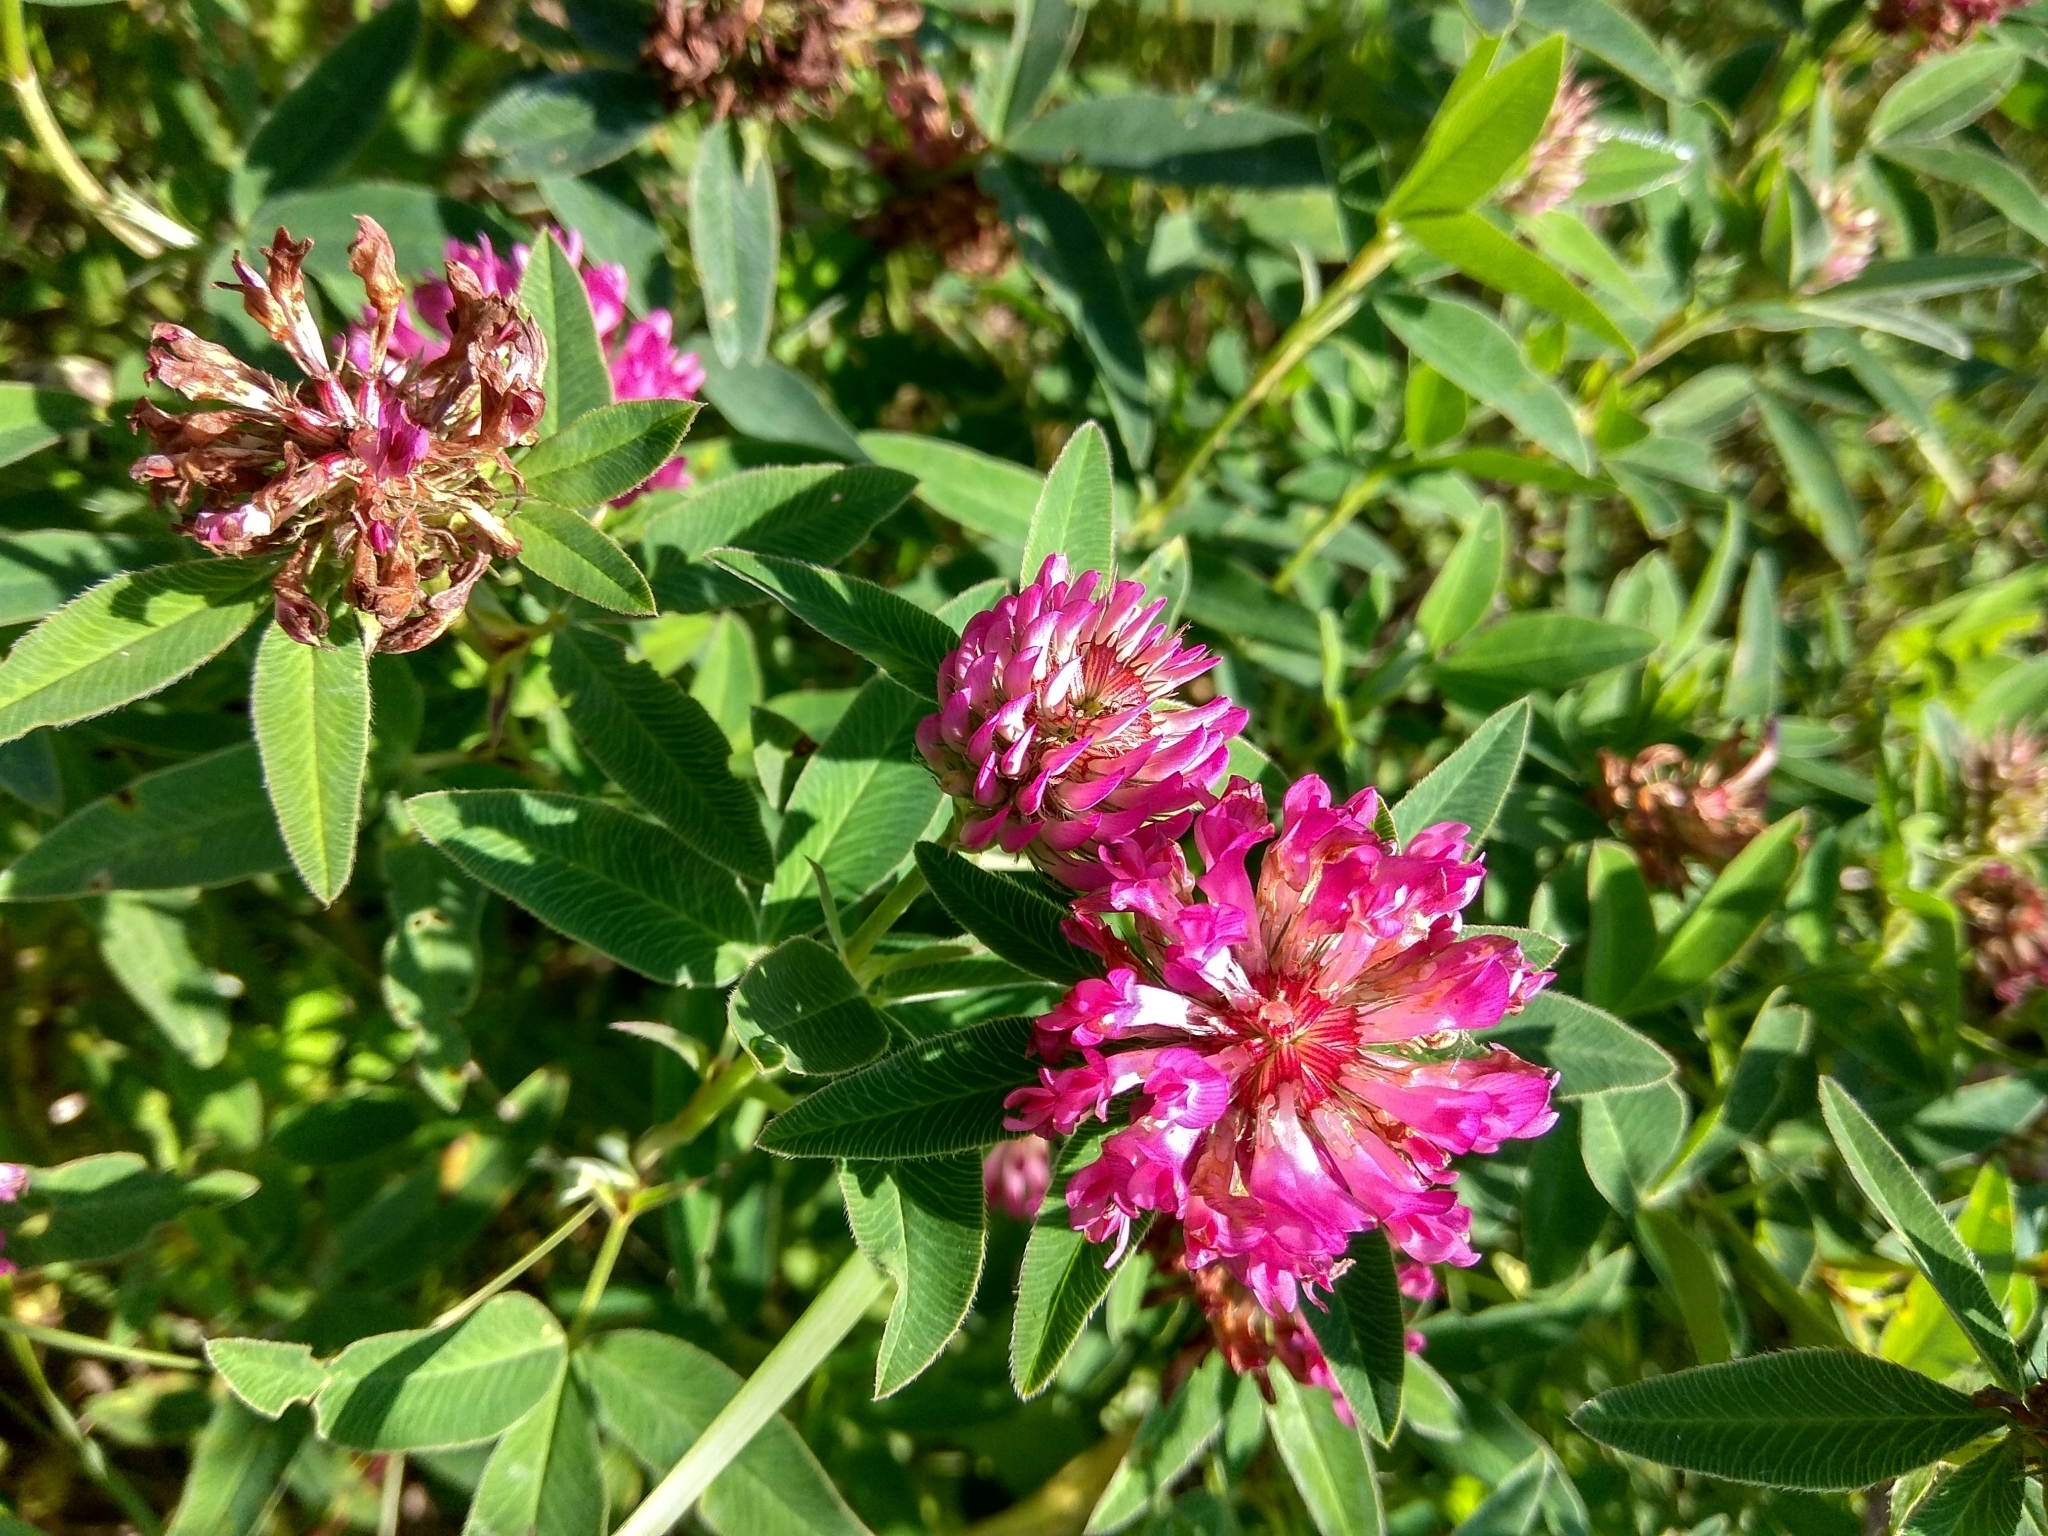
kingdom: Plantae
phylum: Tracheophyta
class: Magnoliopsida
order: Fabales
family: Fabaceae
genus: Trifolium
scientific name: Trifolium medium
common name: Zigzag clover
